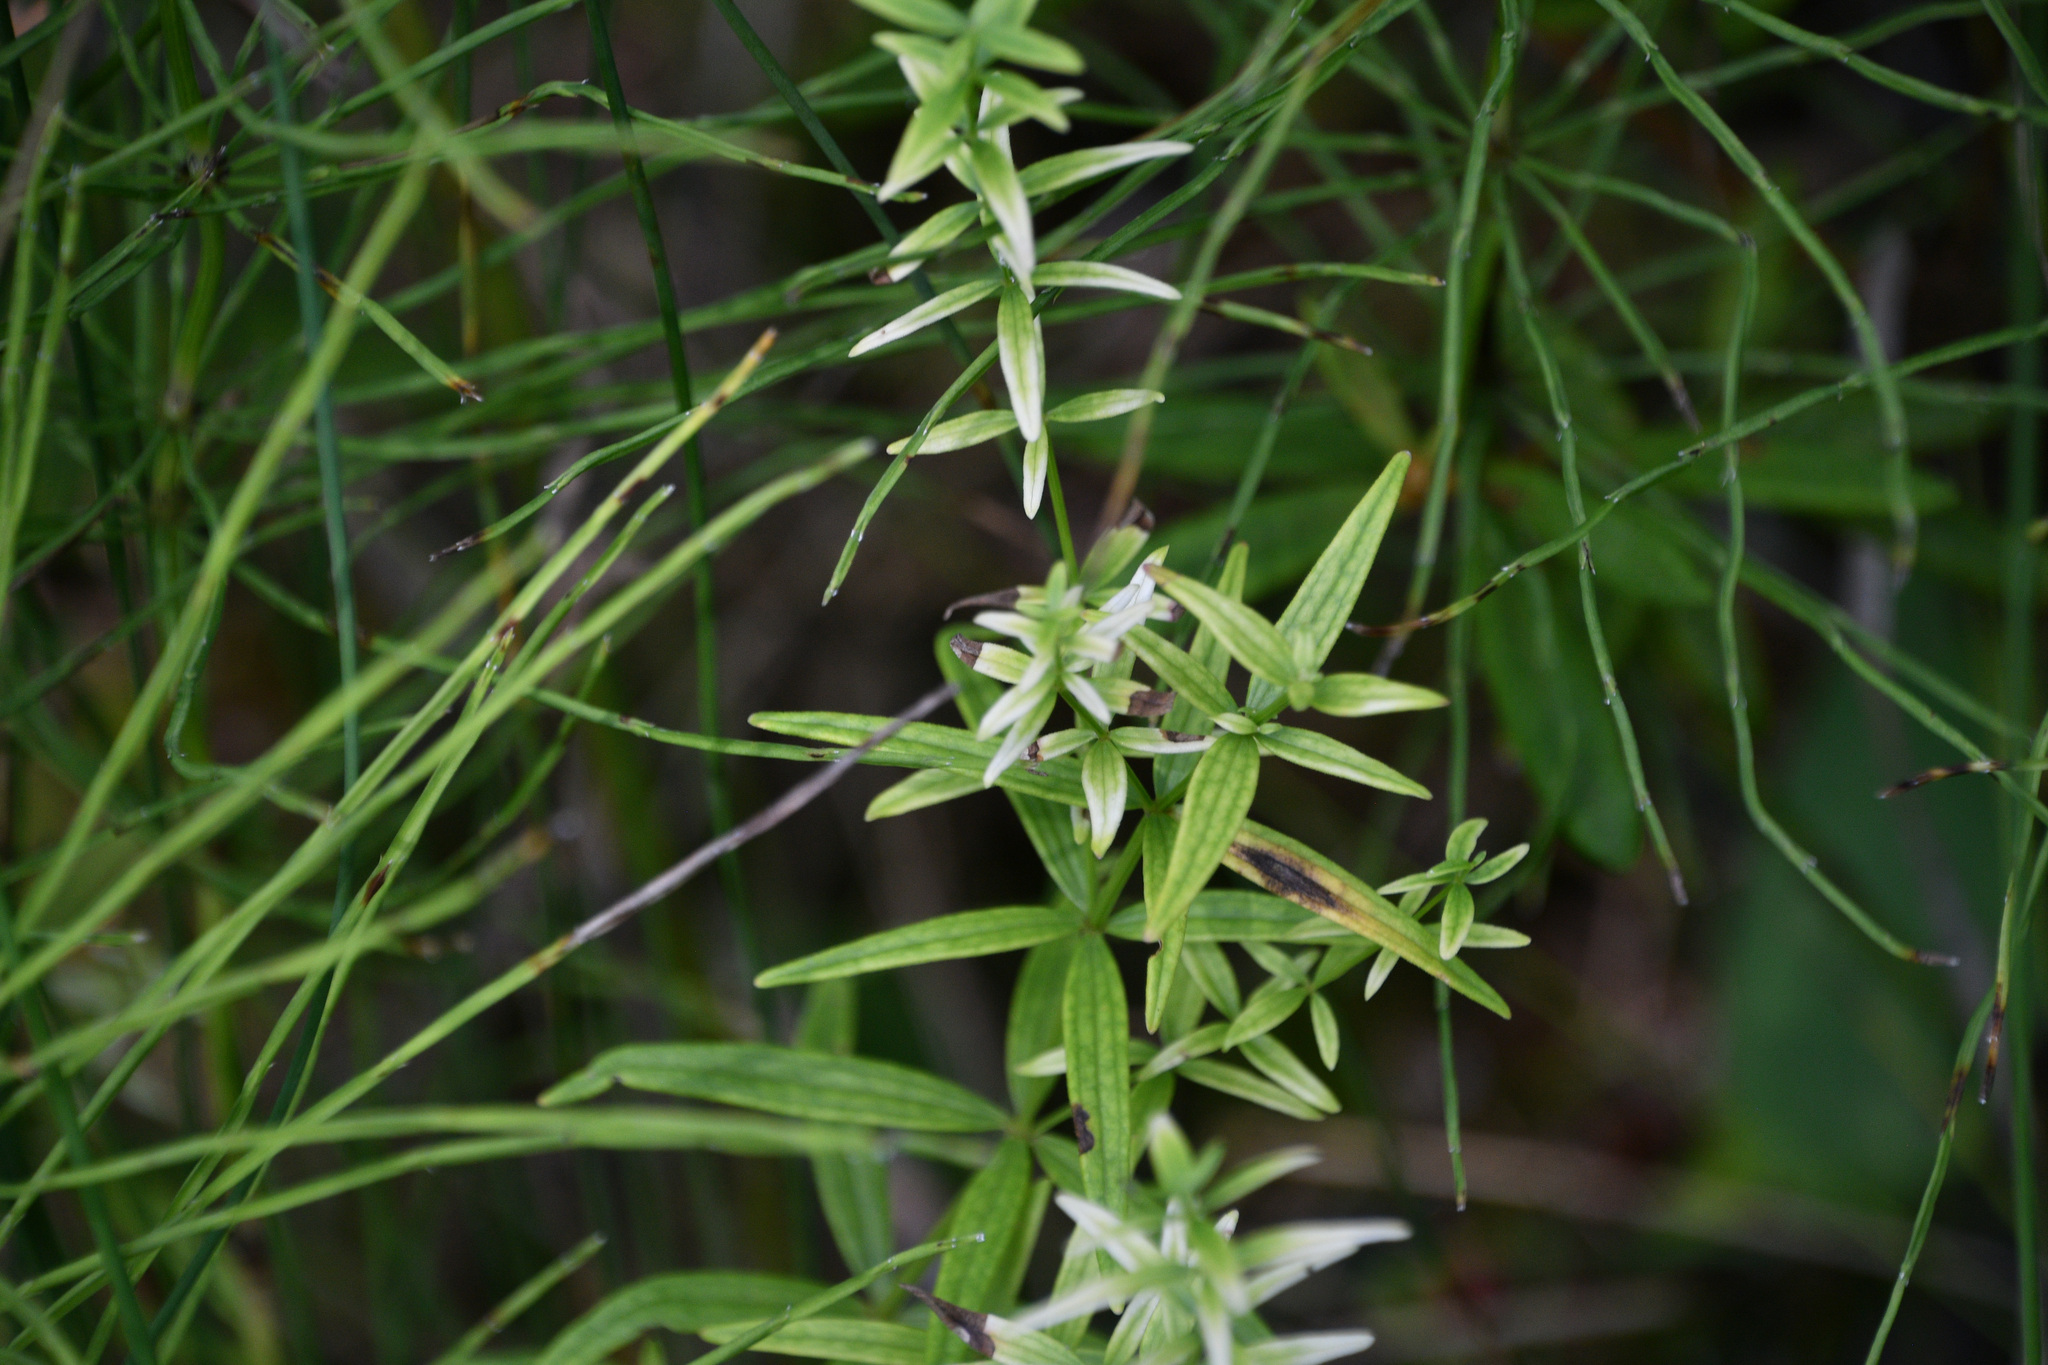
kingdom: Plantae
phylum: Tracheophyta
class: Magnoliopsida
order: Gentianales
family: Rubiaceae
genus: Galium
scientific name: Galium boreale
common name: Northern bedstraw
